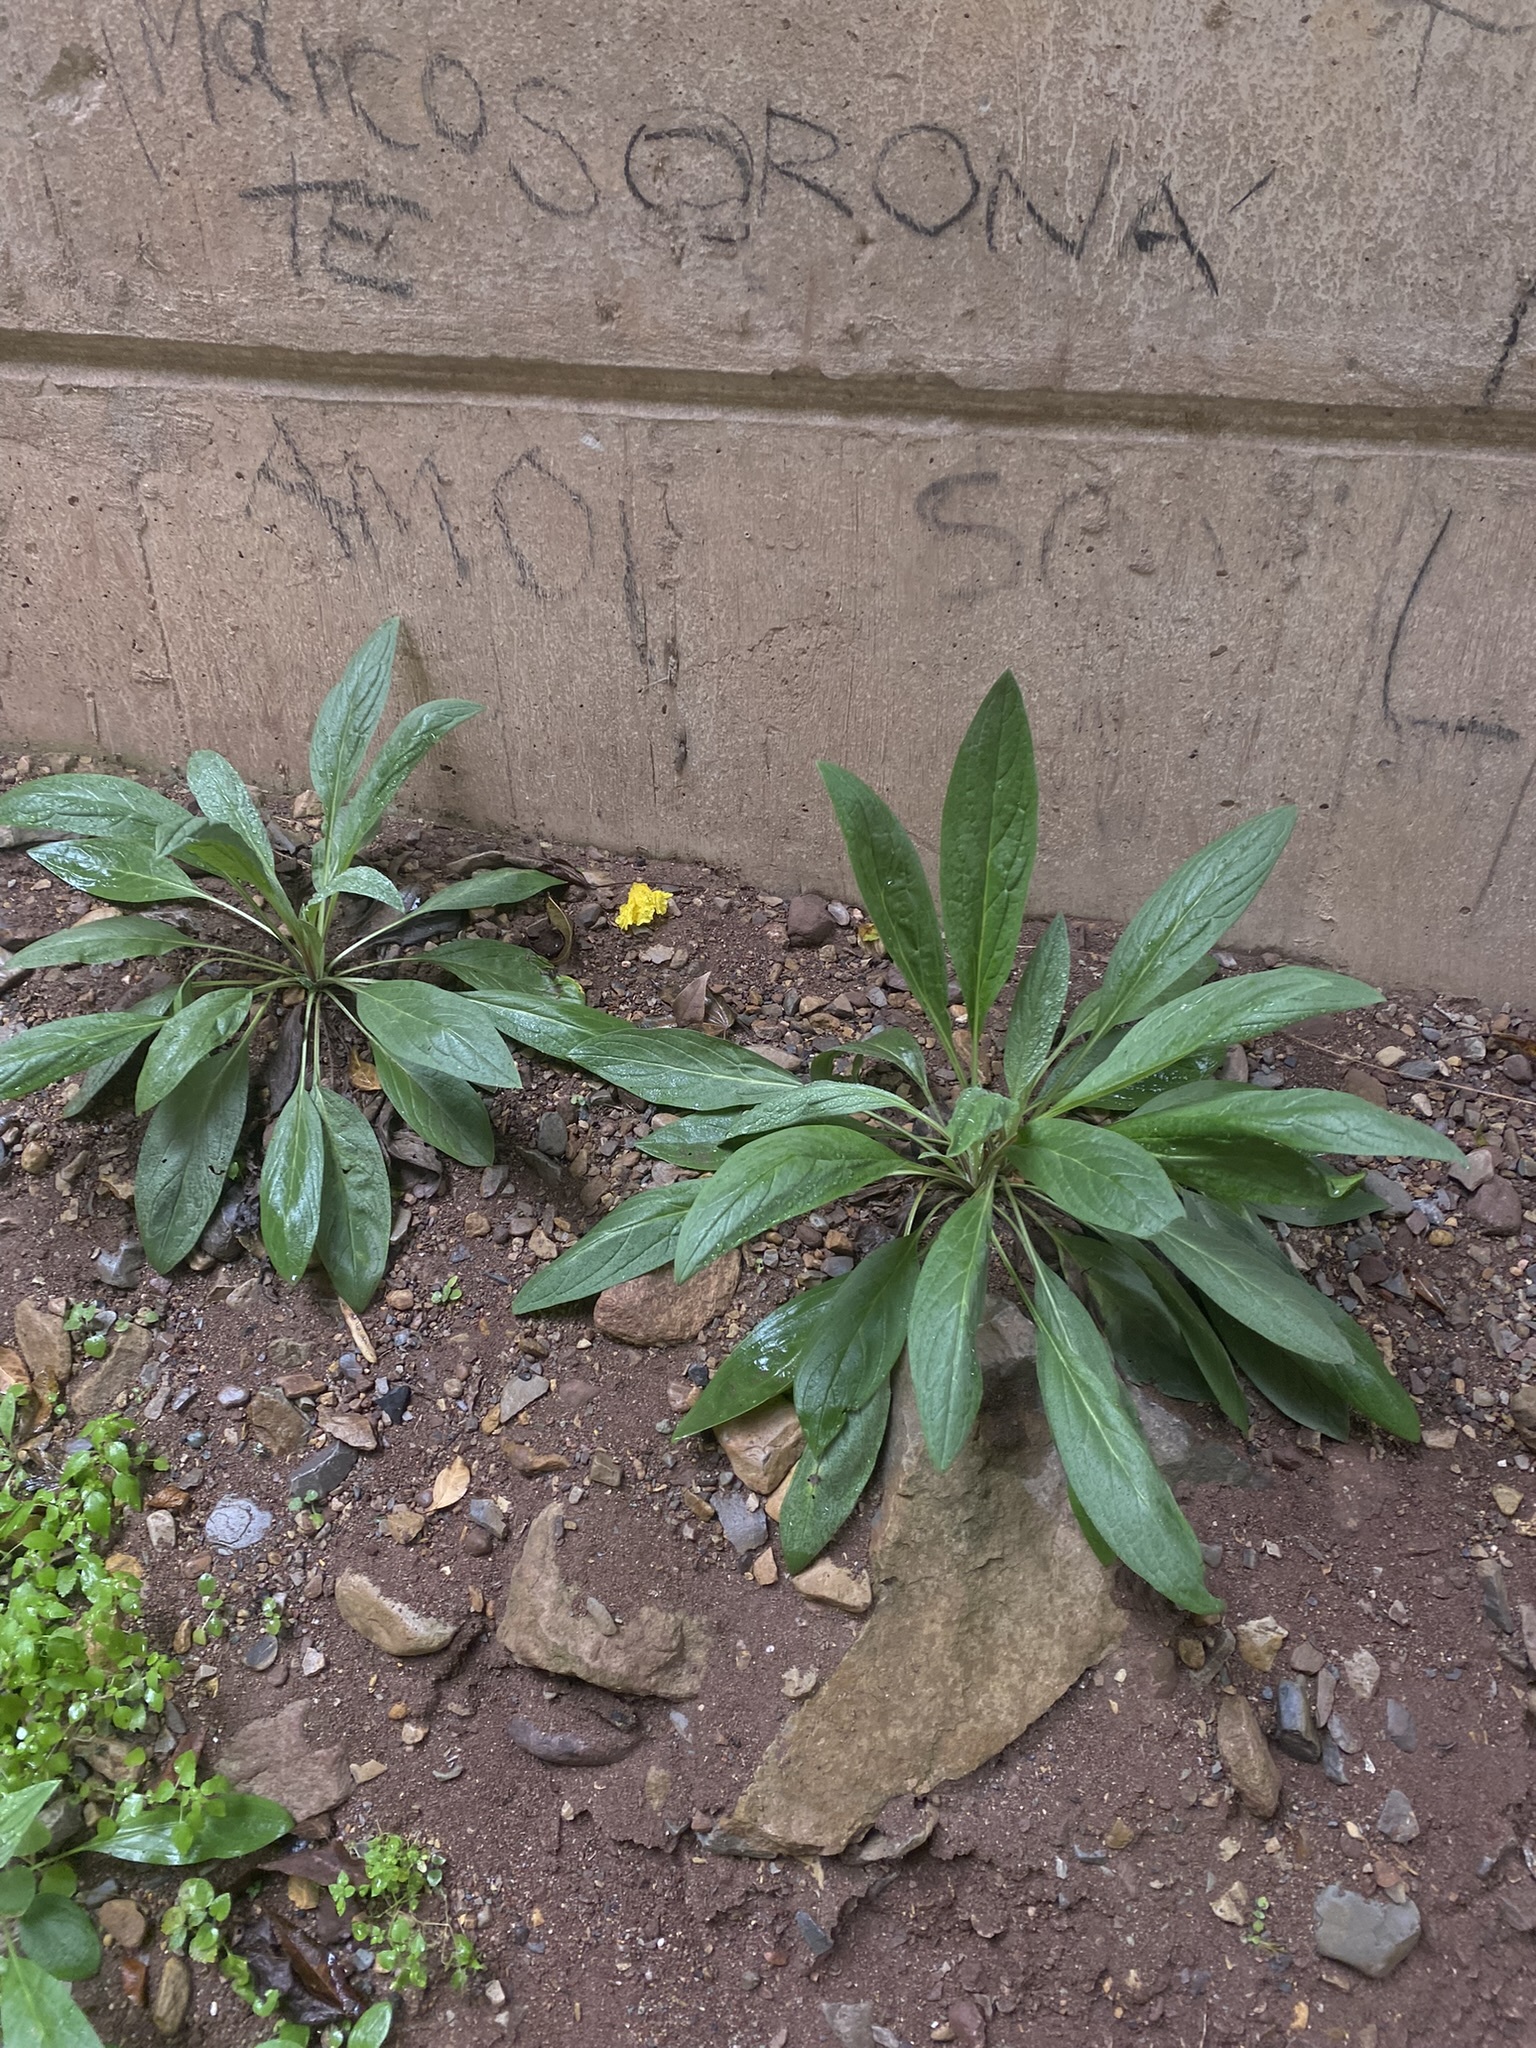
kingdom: Plantae
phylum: Tracheophyta
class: Magnoliopsida
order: Lamiales
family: Plantaginaceae
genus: Plantago
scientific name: Plantago australis
